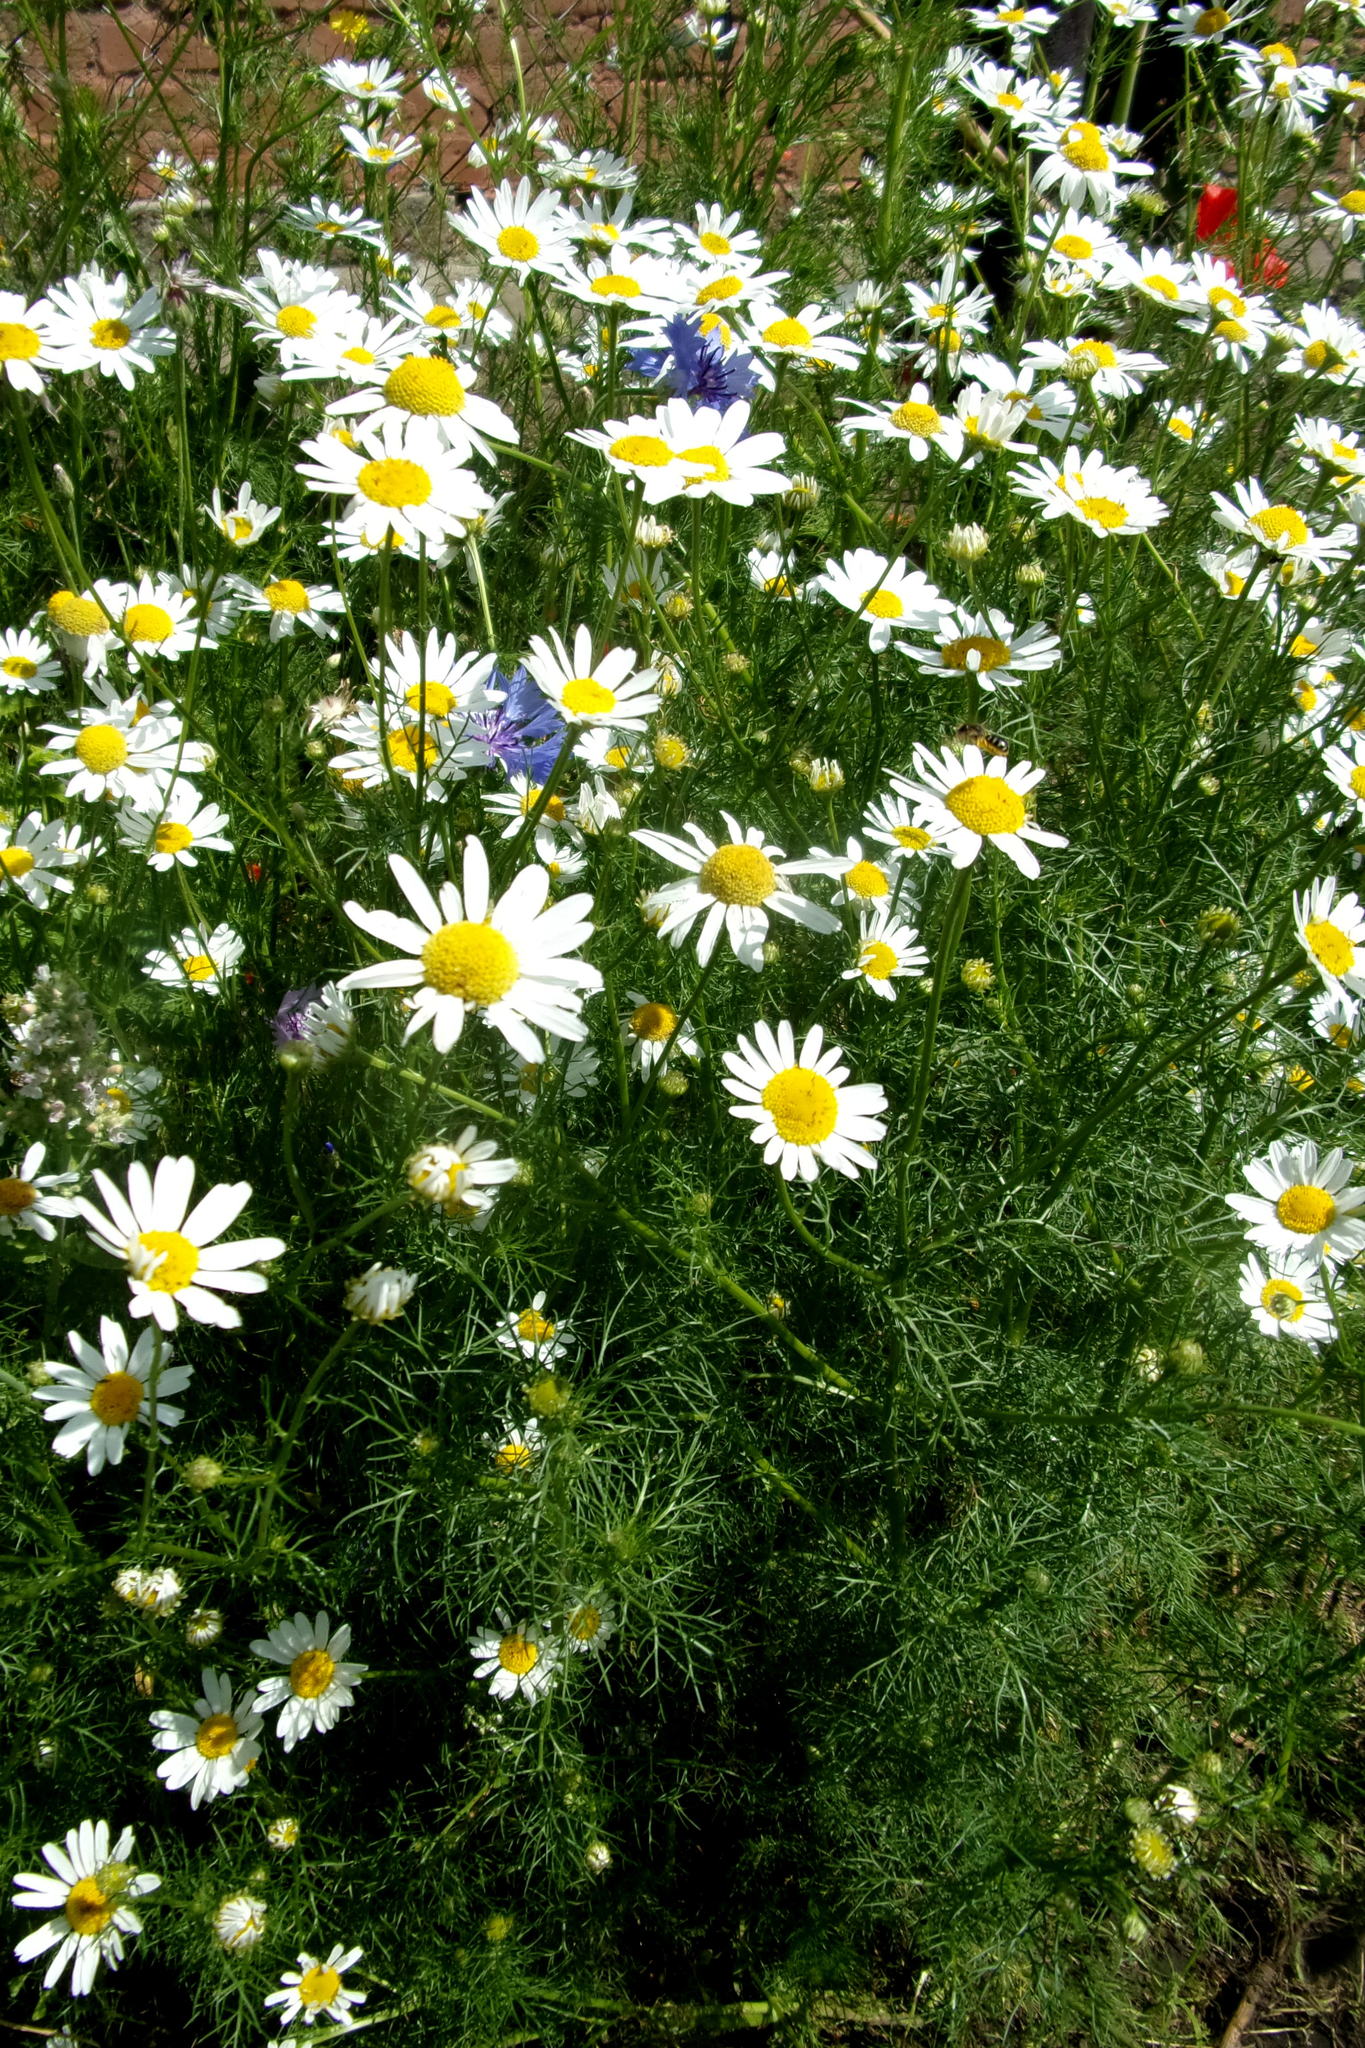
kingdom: Plantae
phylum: Tracheophyta
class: Magnoliopsida
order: Asterales
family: Asteraceae
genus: Tripleurospermum
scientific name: Tripleurospermum inodorum
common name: Scentless mayweed
